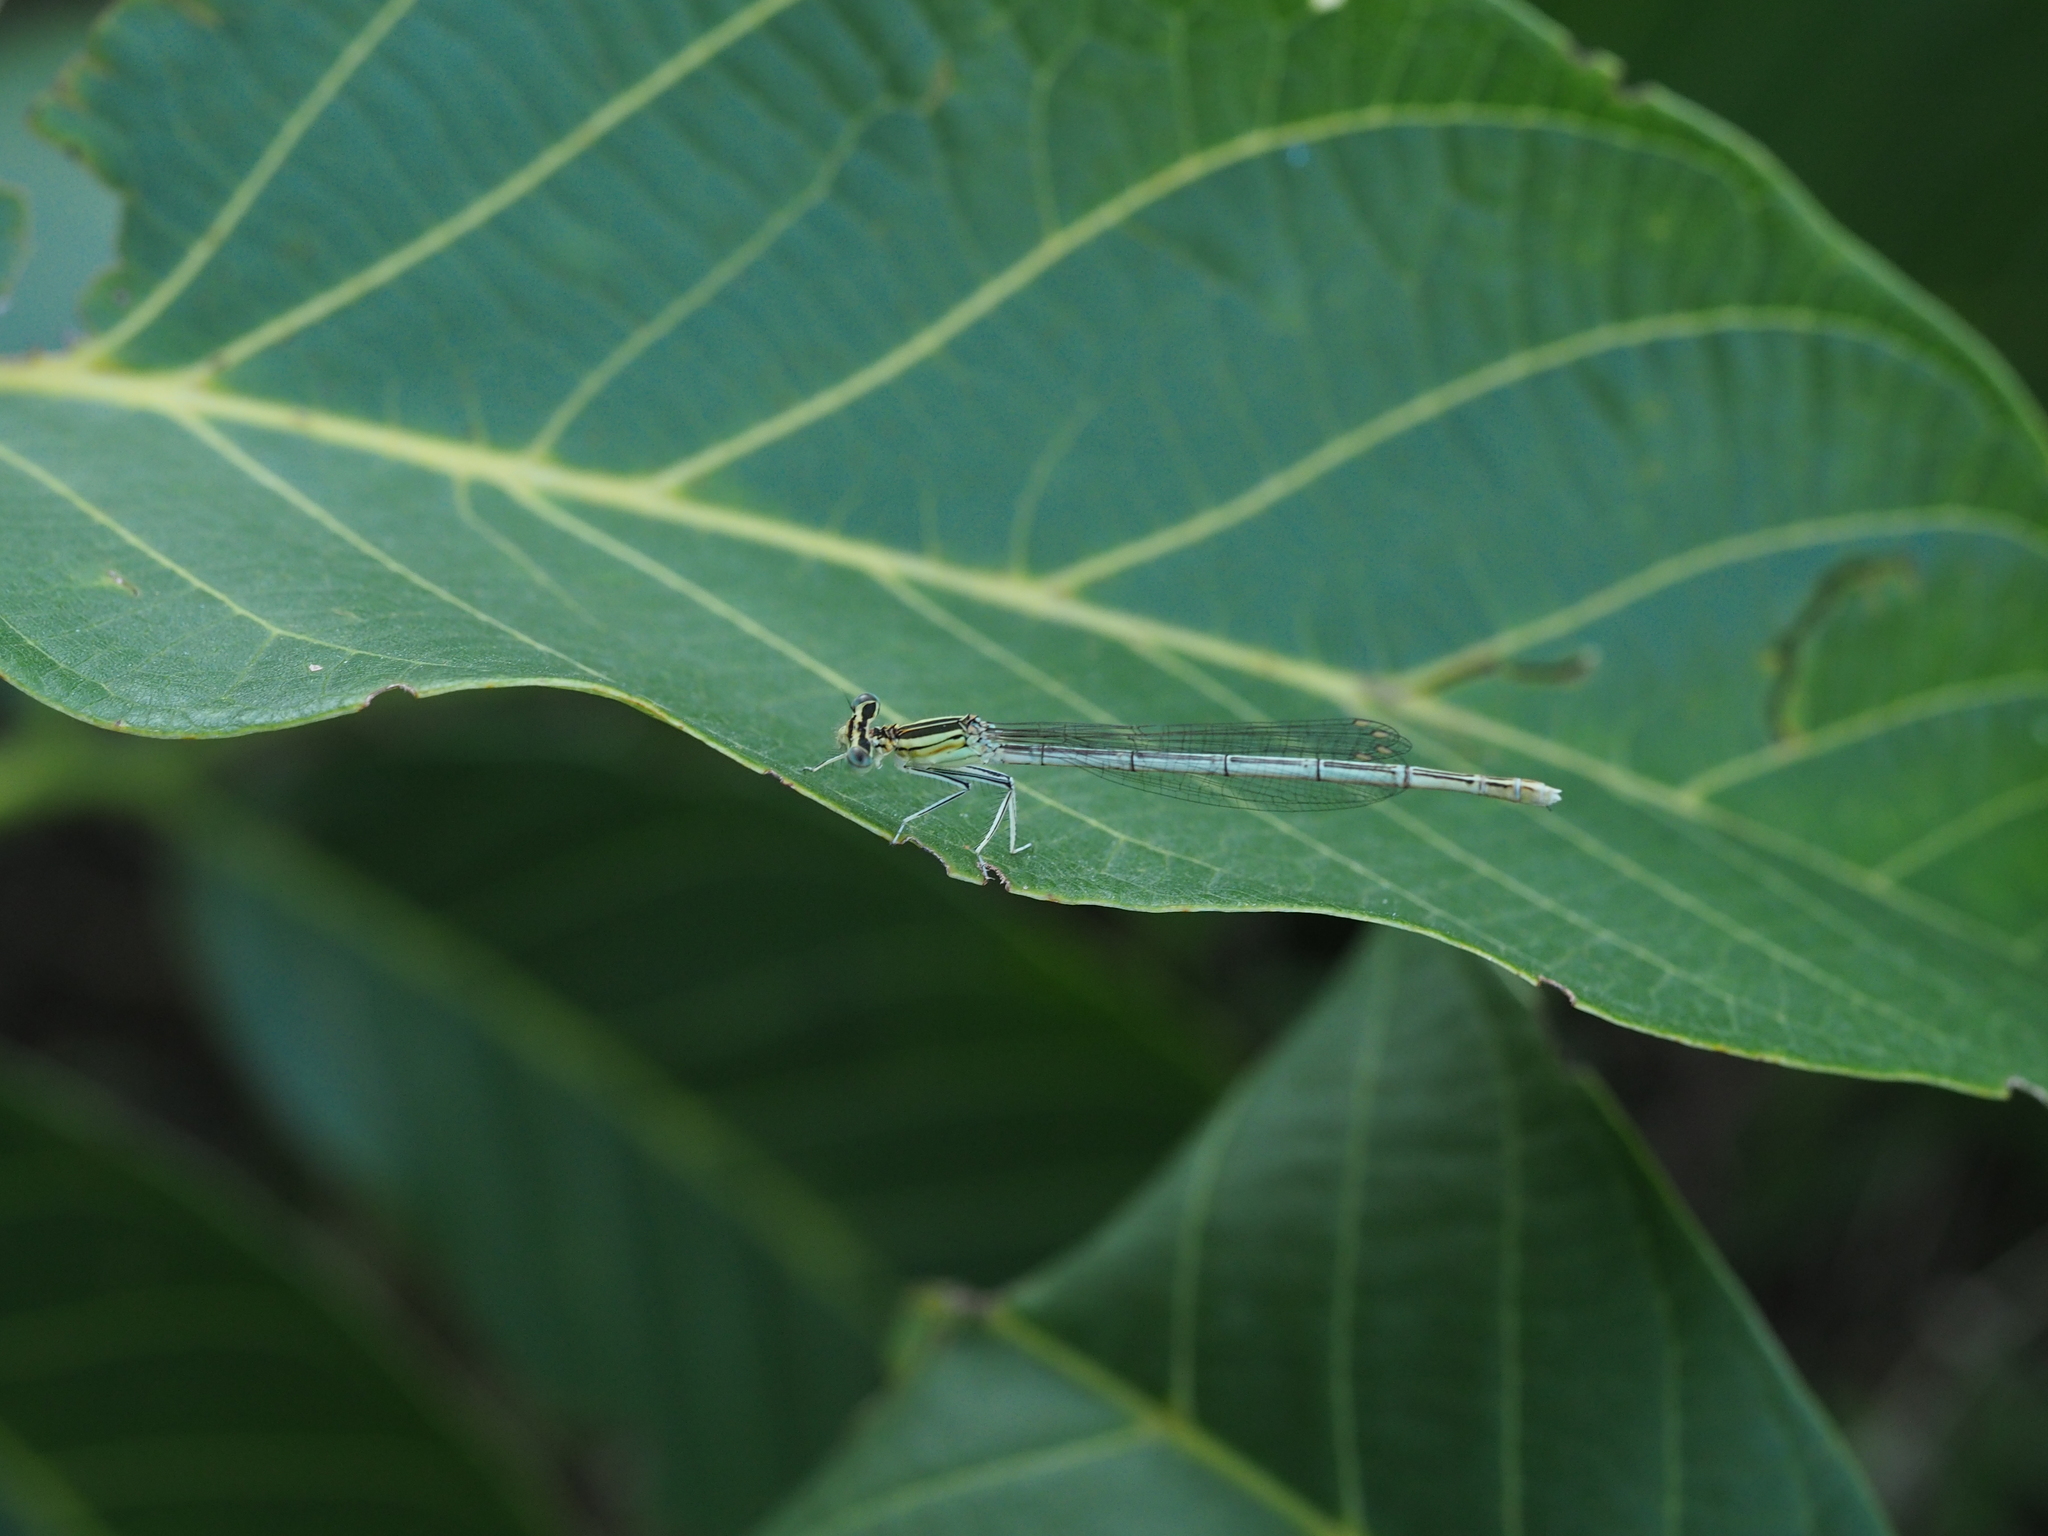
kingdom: Animalia
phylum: Arthropoda
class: Insecta
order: Odonata
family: Platycnemididae
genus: Platycnemis
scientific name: Platycnemis pennipes
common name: White-legged damselfly
